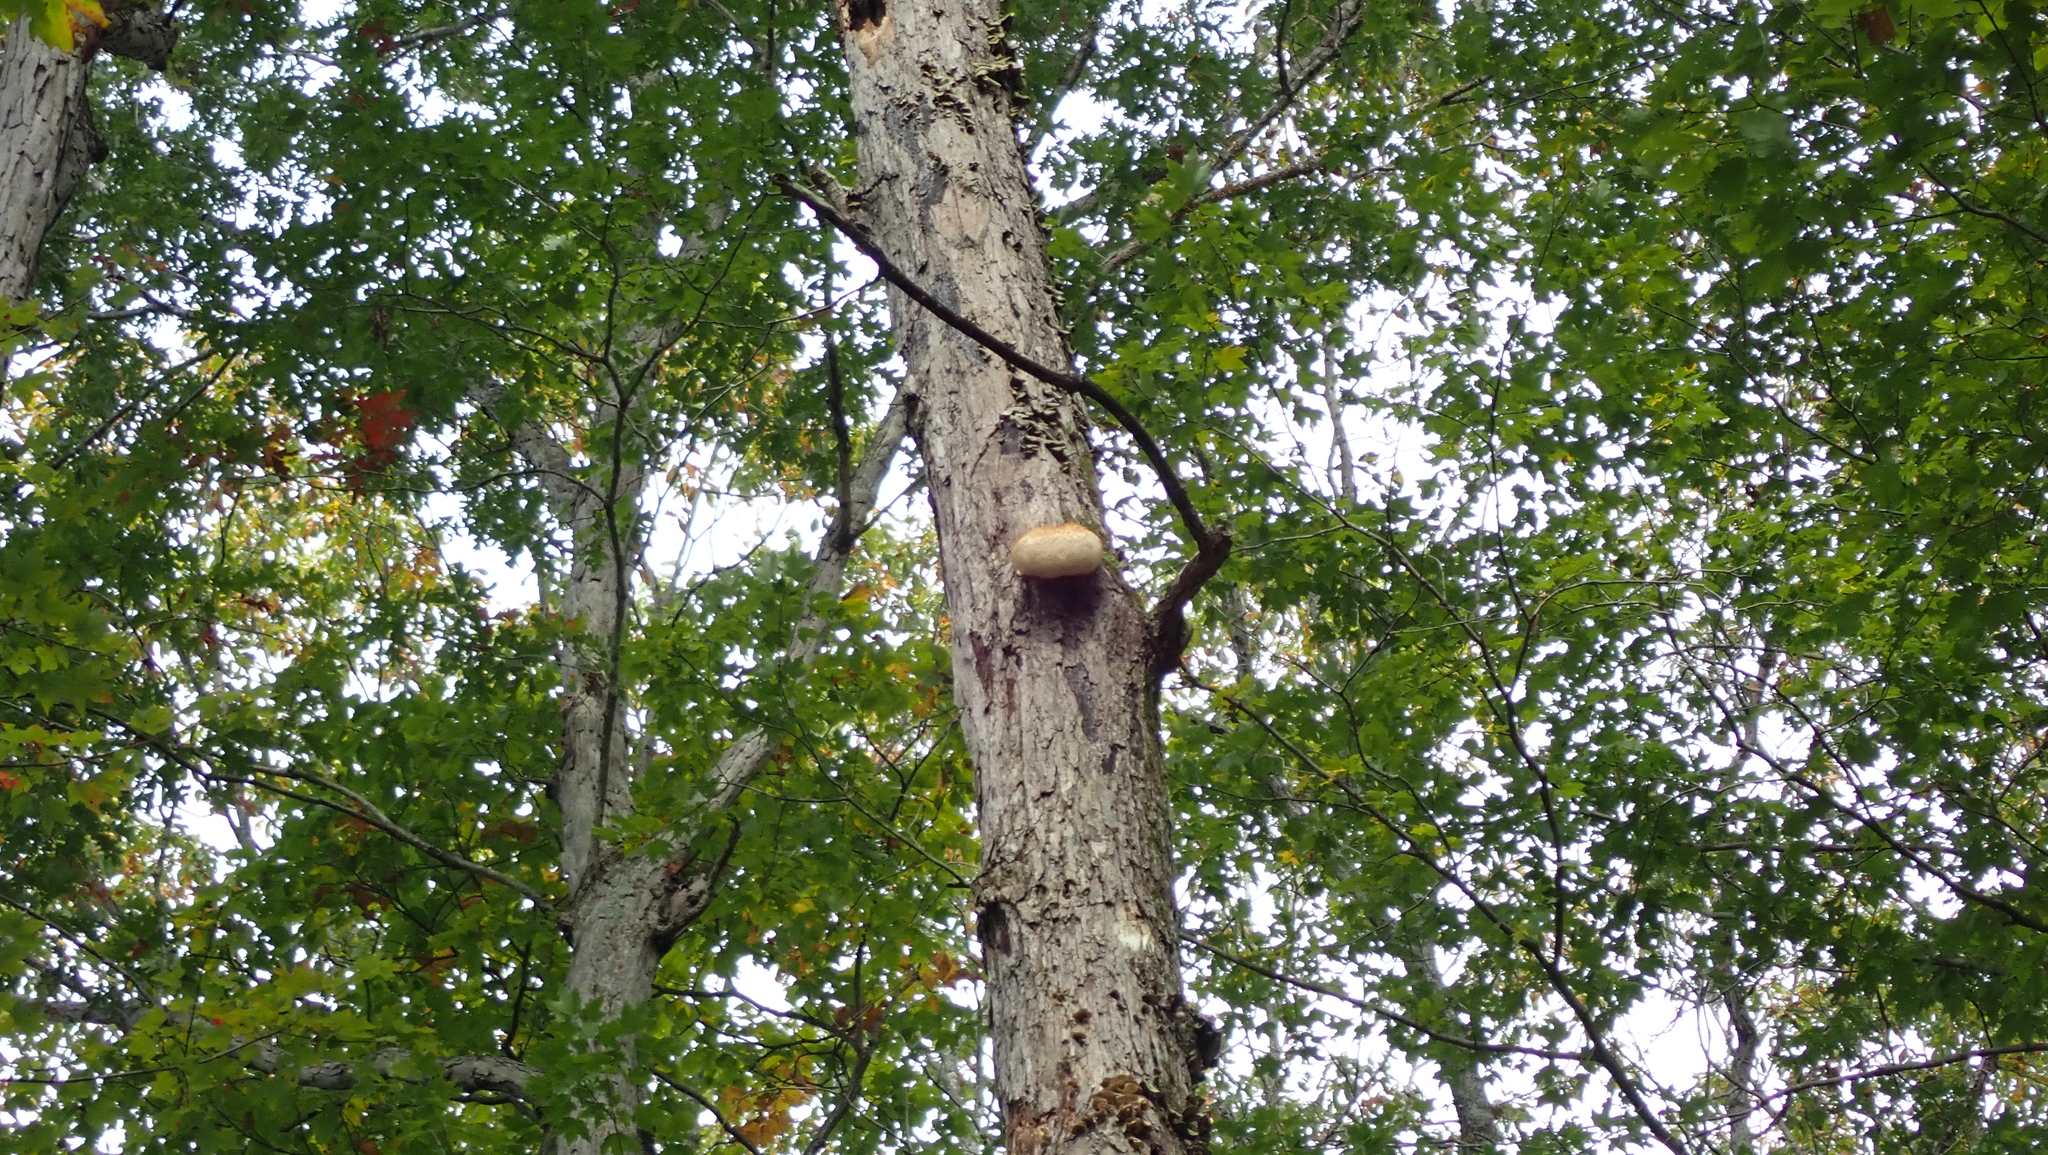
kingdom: Fungi
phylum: Basidiomycota
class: Agaricomycetes
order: Russulales
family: Hericiaceae
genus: Hericium
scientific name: Hericium erinaceus
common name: Bearded tooth
